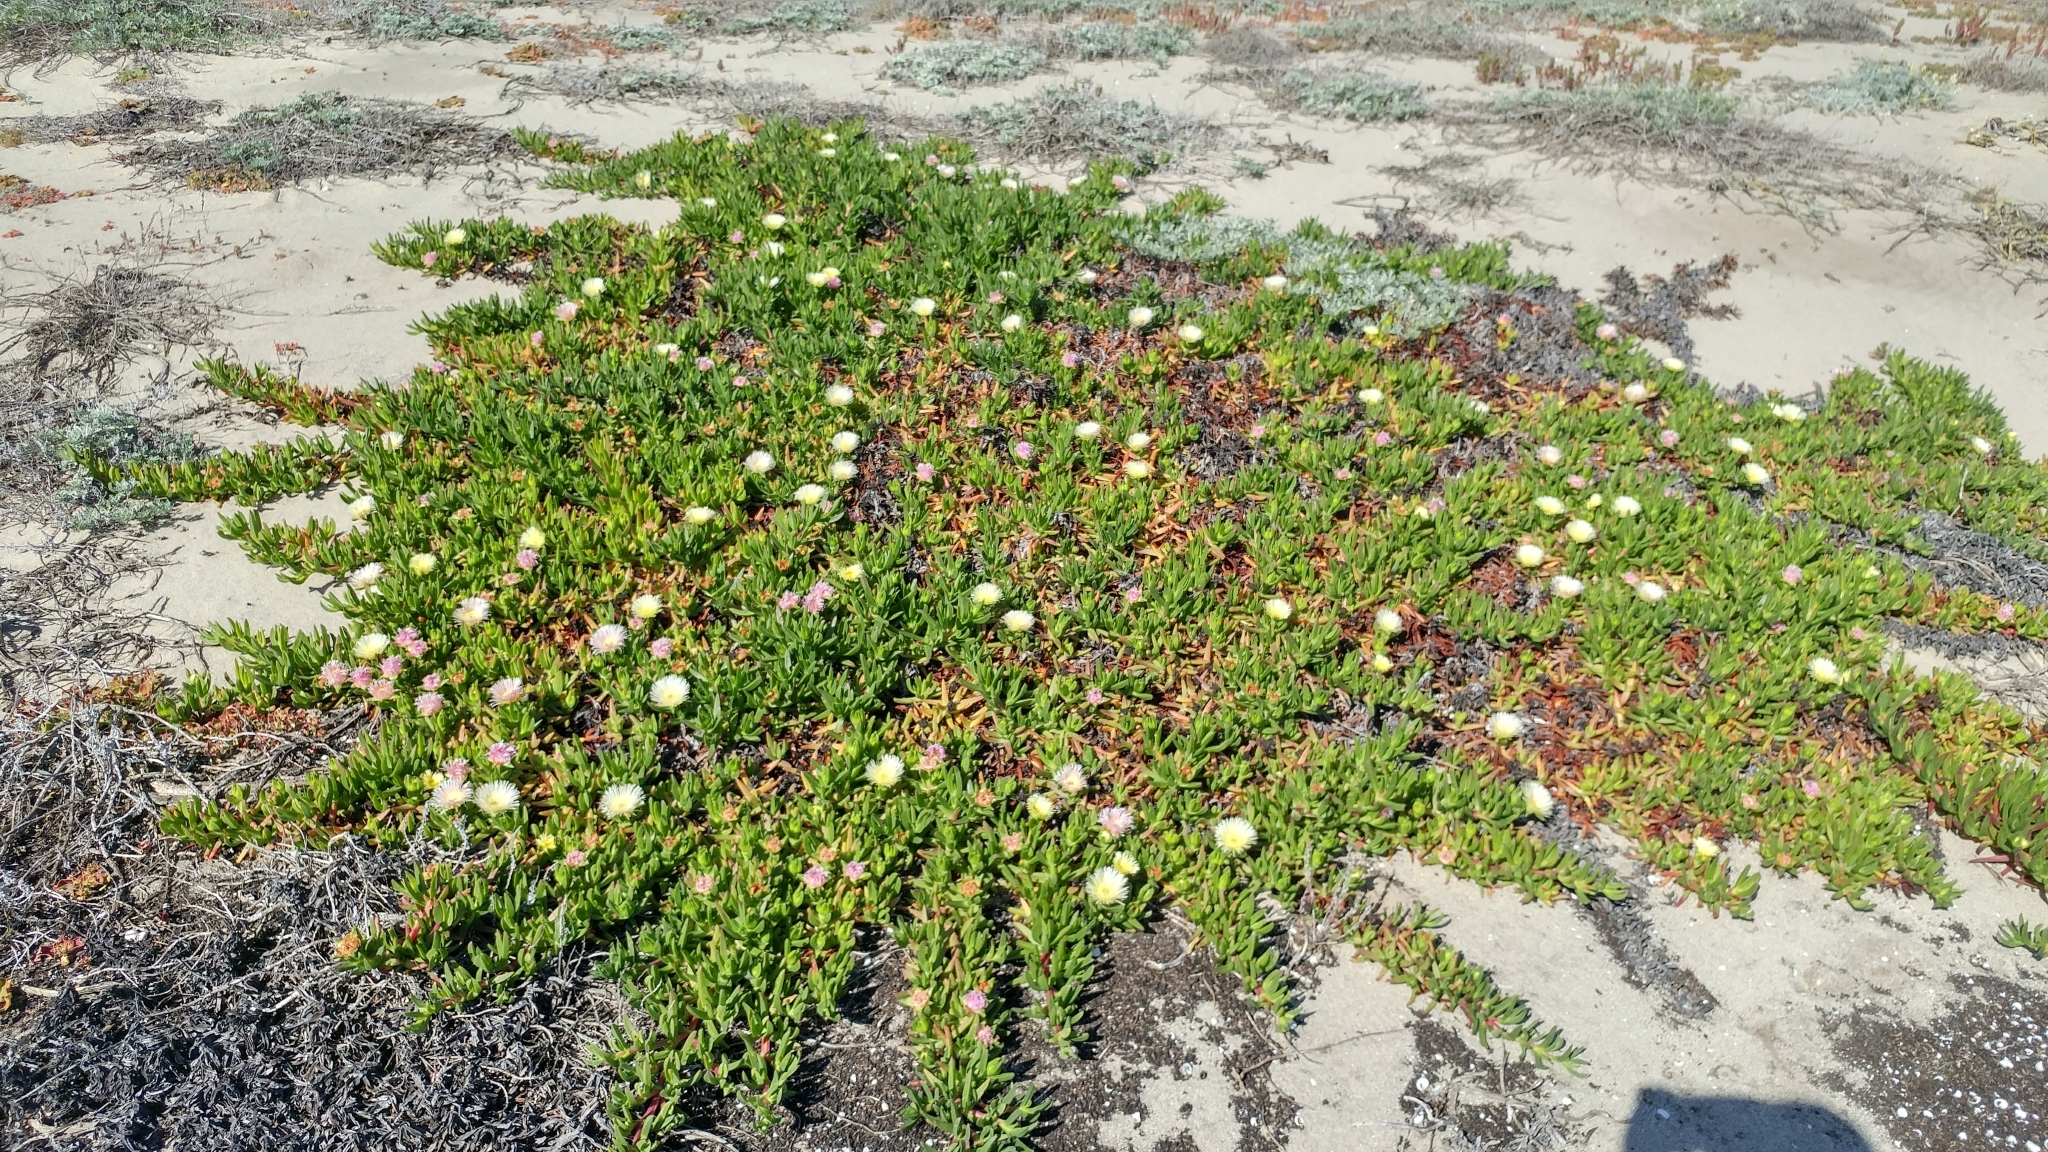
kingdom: Plantae
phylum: Tracheophyta
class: Magnoliopsida
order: Caryophyllales
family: Aizoaceae
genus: Carpobrotus
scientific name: Carpobrotus edulis
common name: Hottentot-fig
